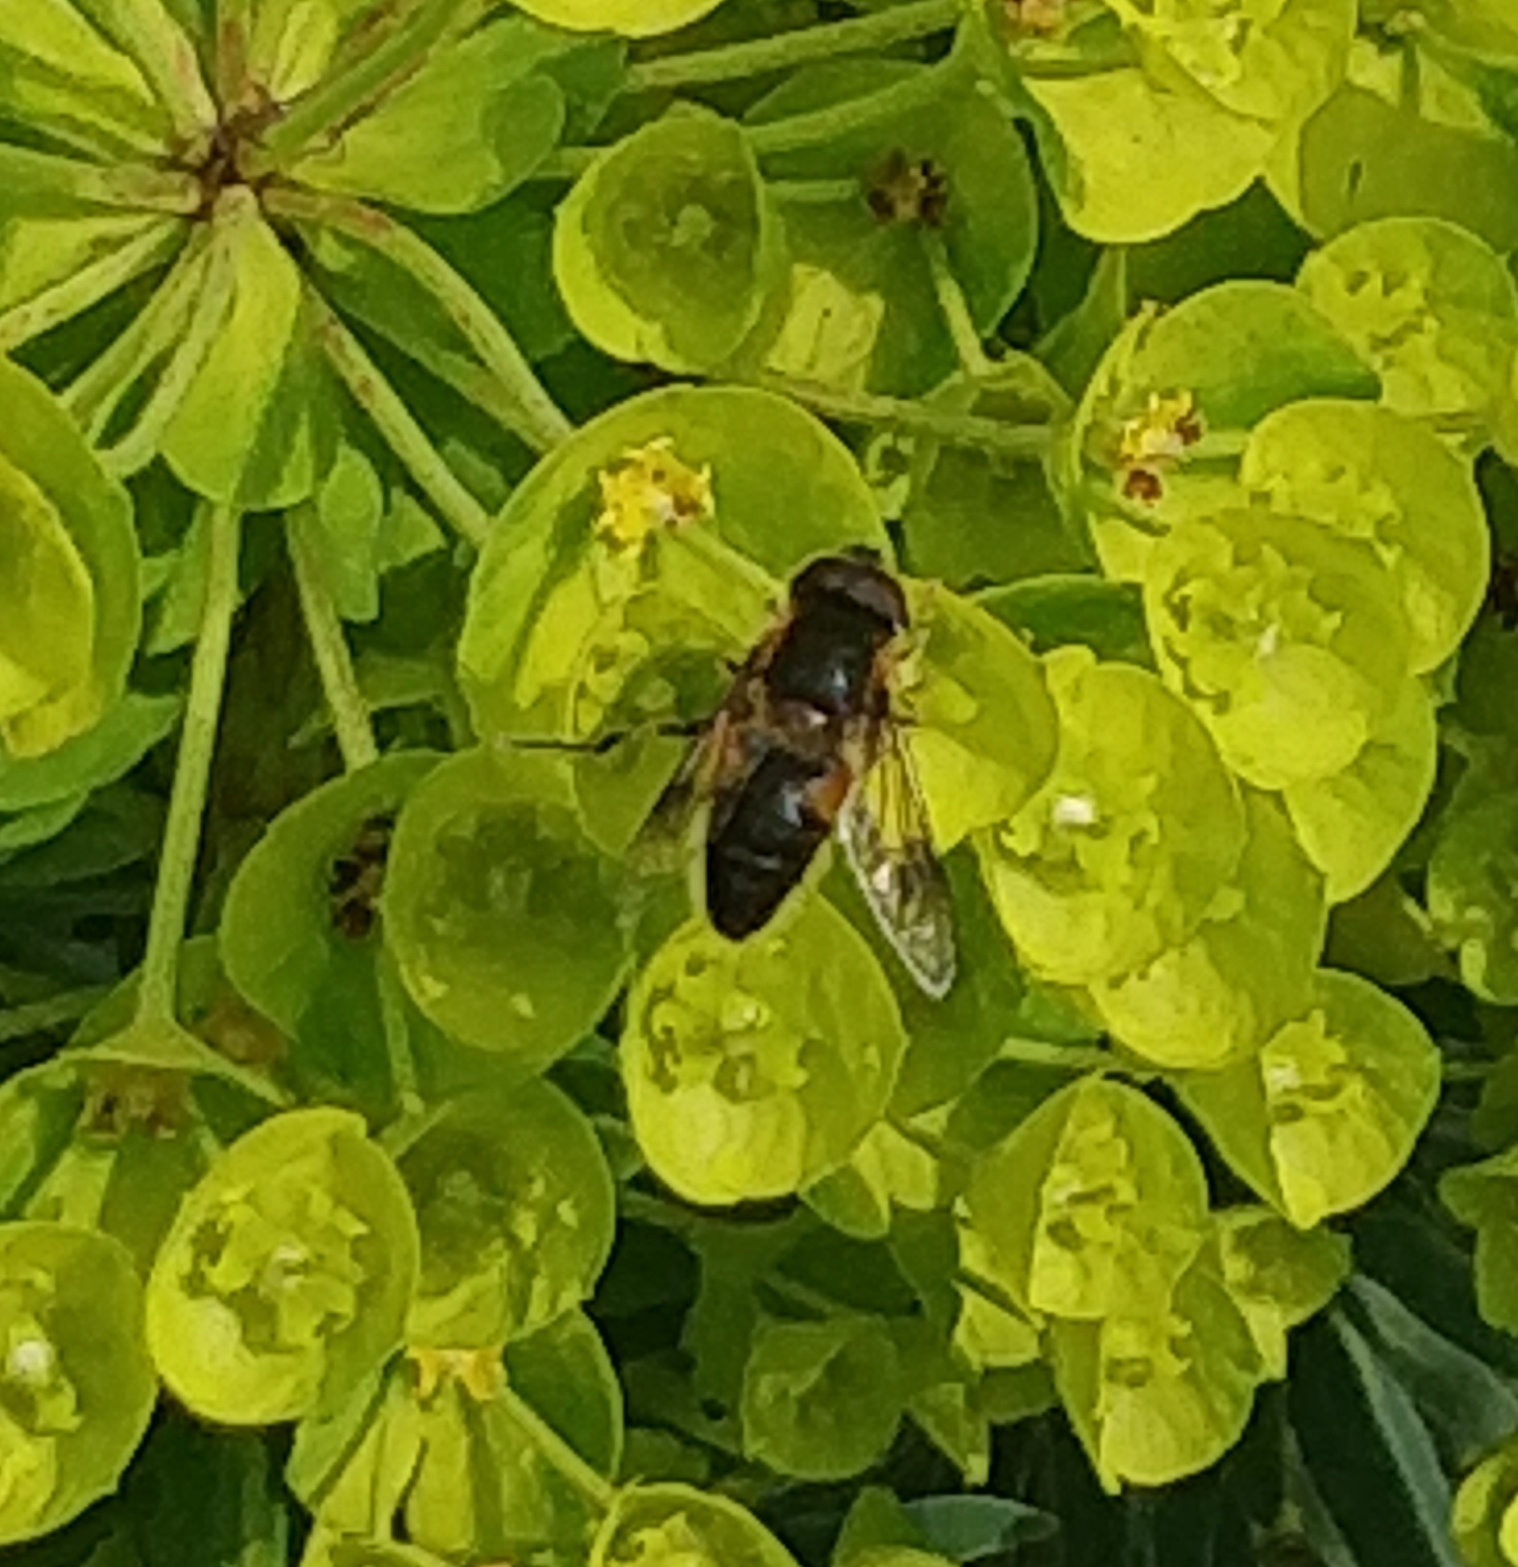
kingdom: Animalia
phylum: Arthropoda
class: Insecta
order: Diptera
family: Syrphidae
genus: Eristalis
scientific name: Eristalis pertinax
